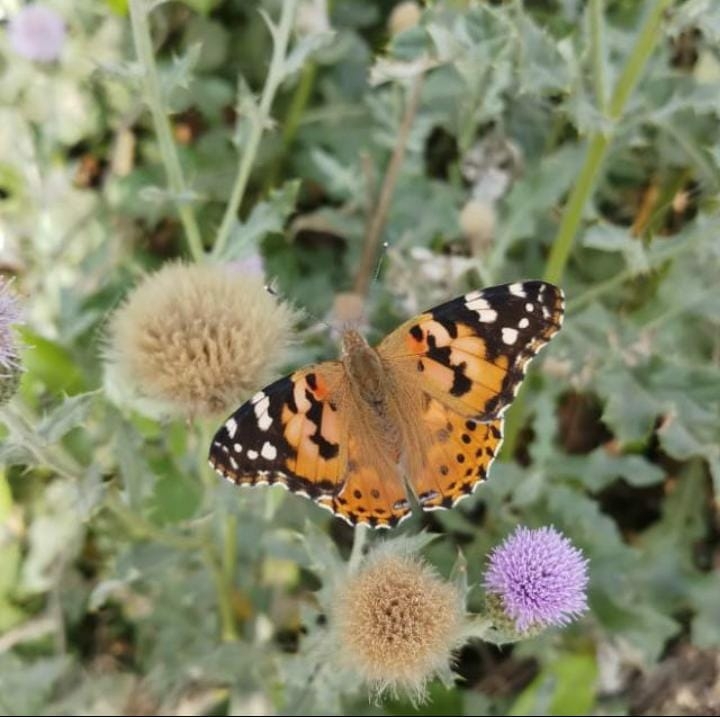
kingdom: Animalia
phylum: Arthropoda
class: Insecta
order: Lepidoptera
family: Nymphalidae
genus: Vanessa
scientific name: Vanessa cardui
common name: Painted lady
